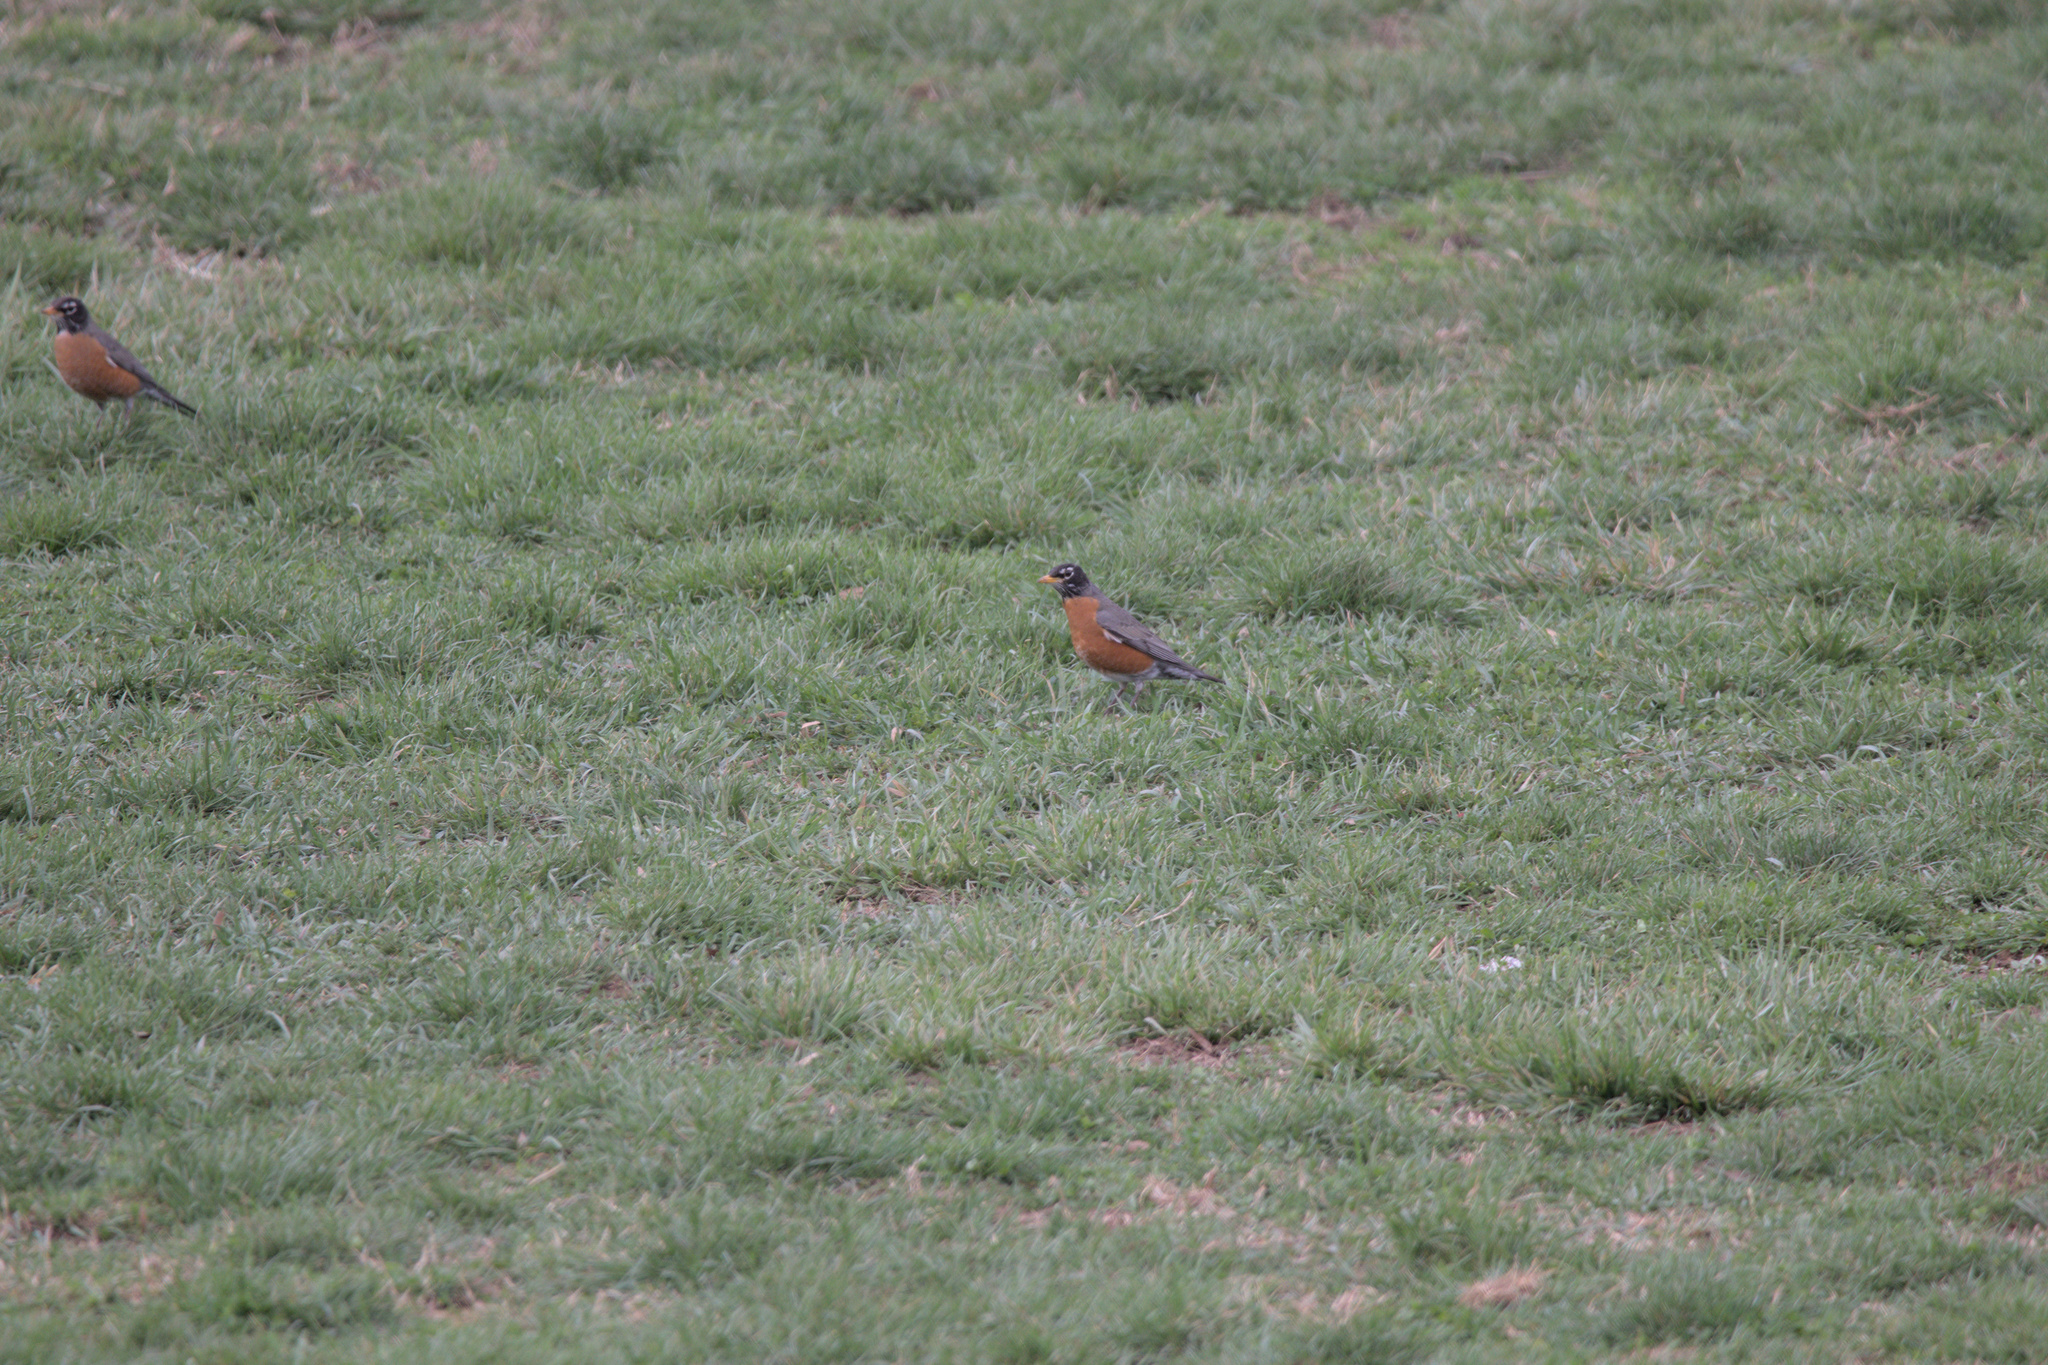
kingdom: Animalia
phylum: Chordata
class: Aves
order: Passeriformes
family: Turdidae
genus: Turdus
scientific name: Turdus migratorius
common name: American robin
